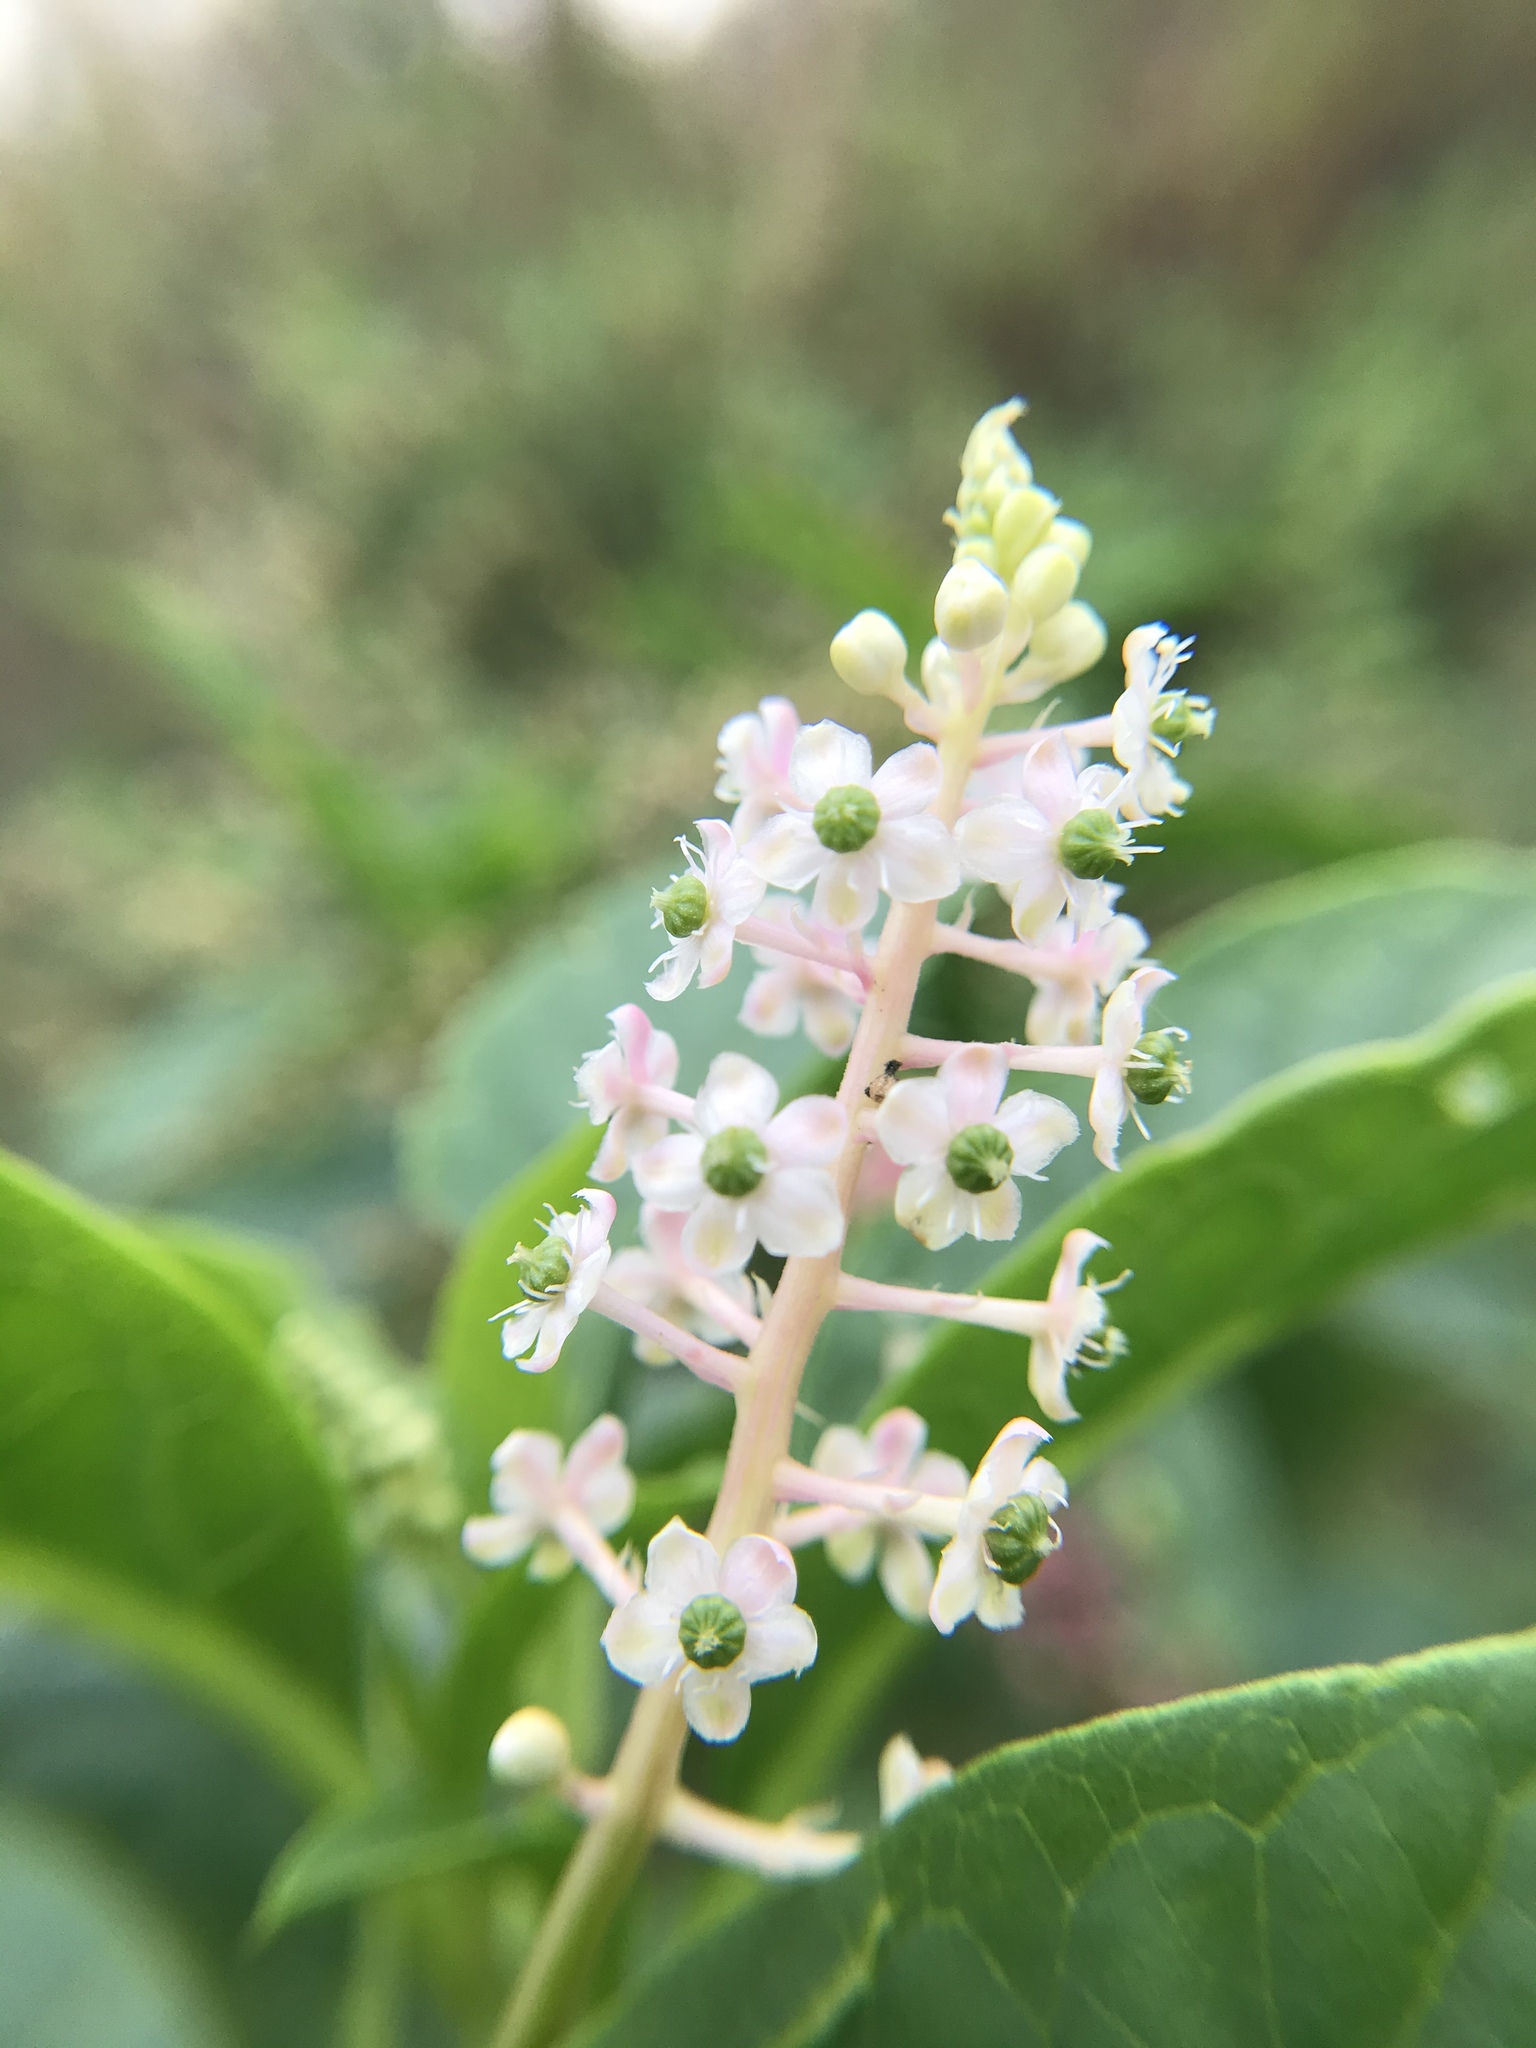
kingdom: Plantae
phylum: Tracheophyta
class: Magnoliopsida
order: Caryophyllales
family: Phytolaccaceae
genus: Phytolacca
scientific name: Phytolacca americana
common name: American pokeweed
